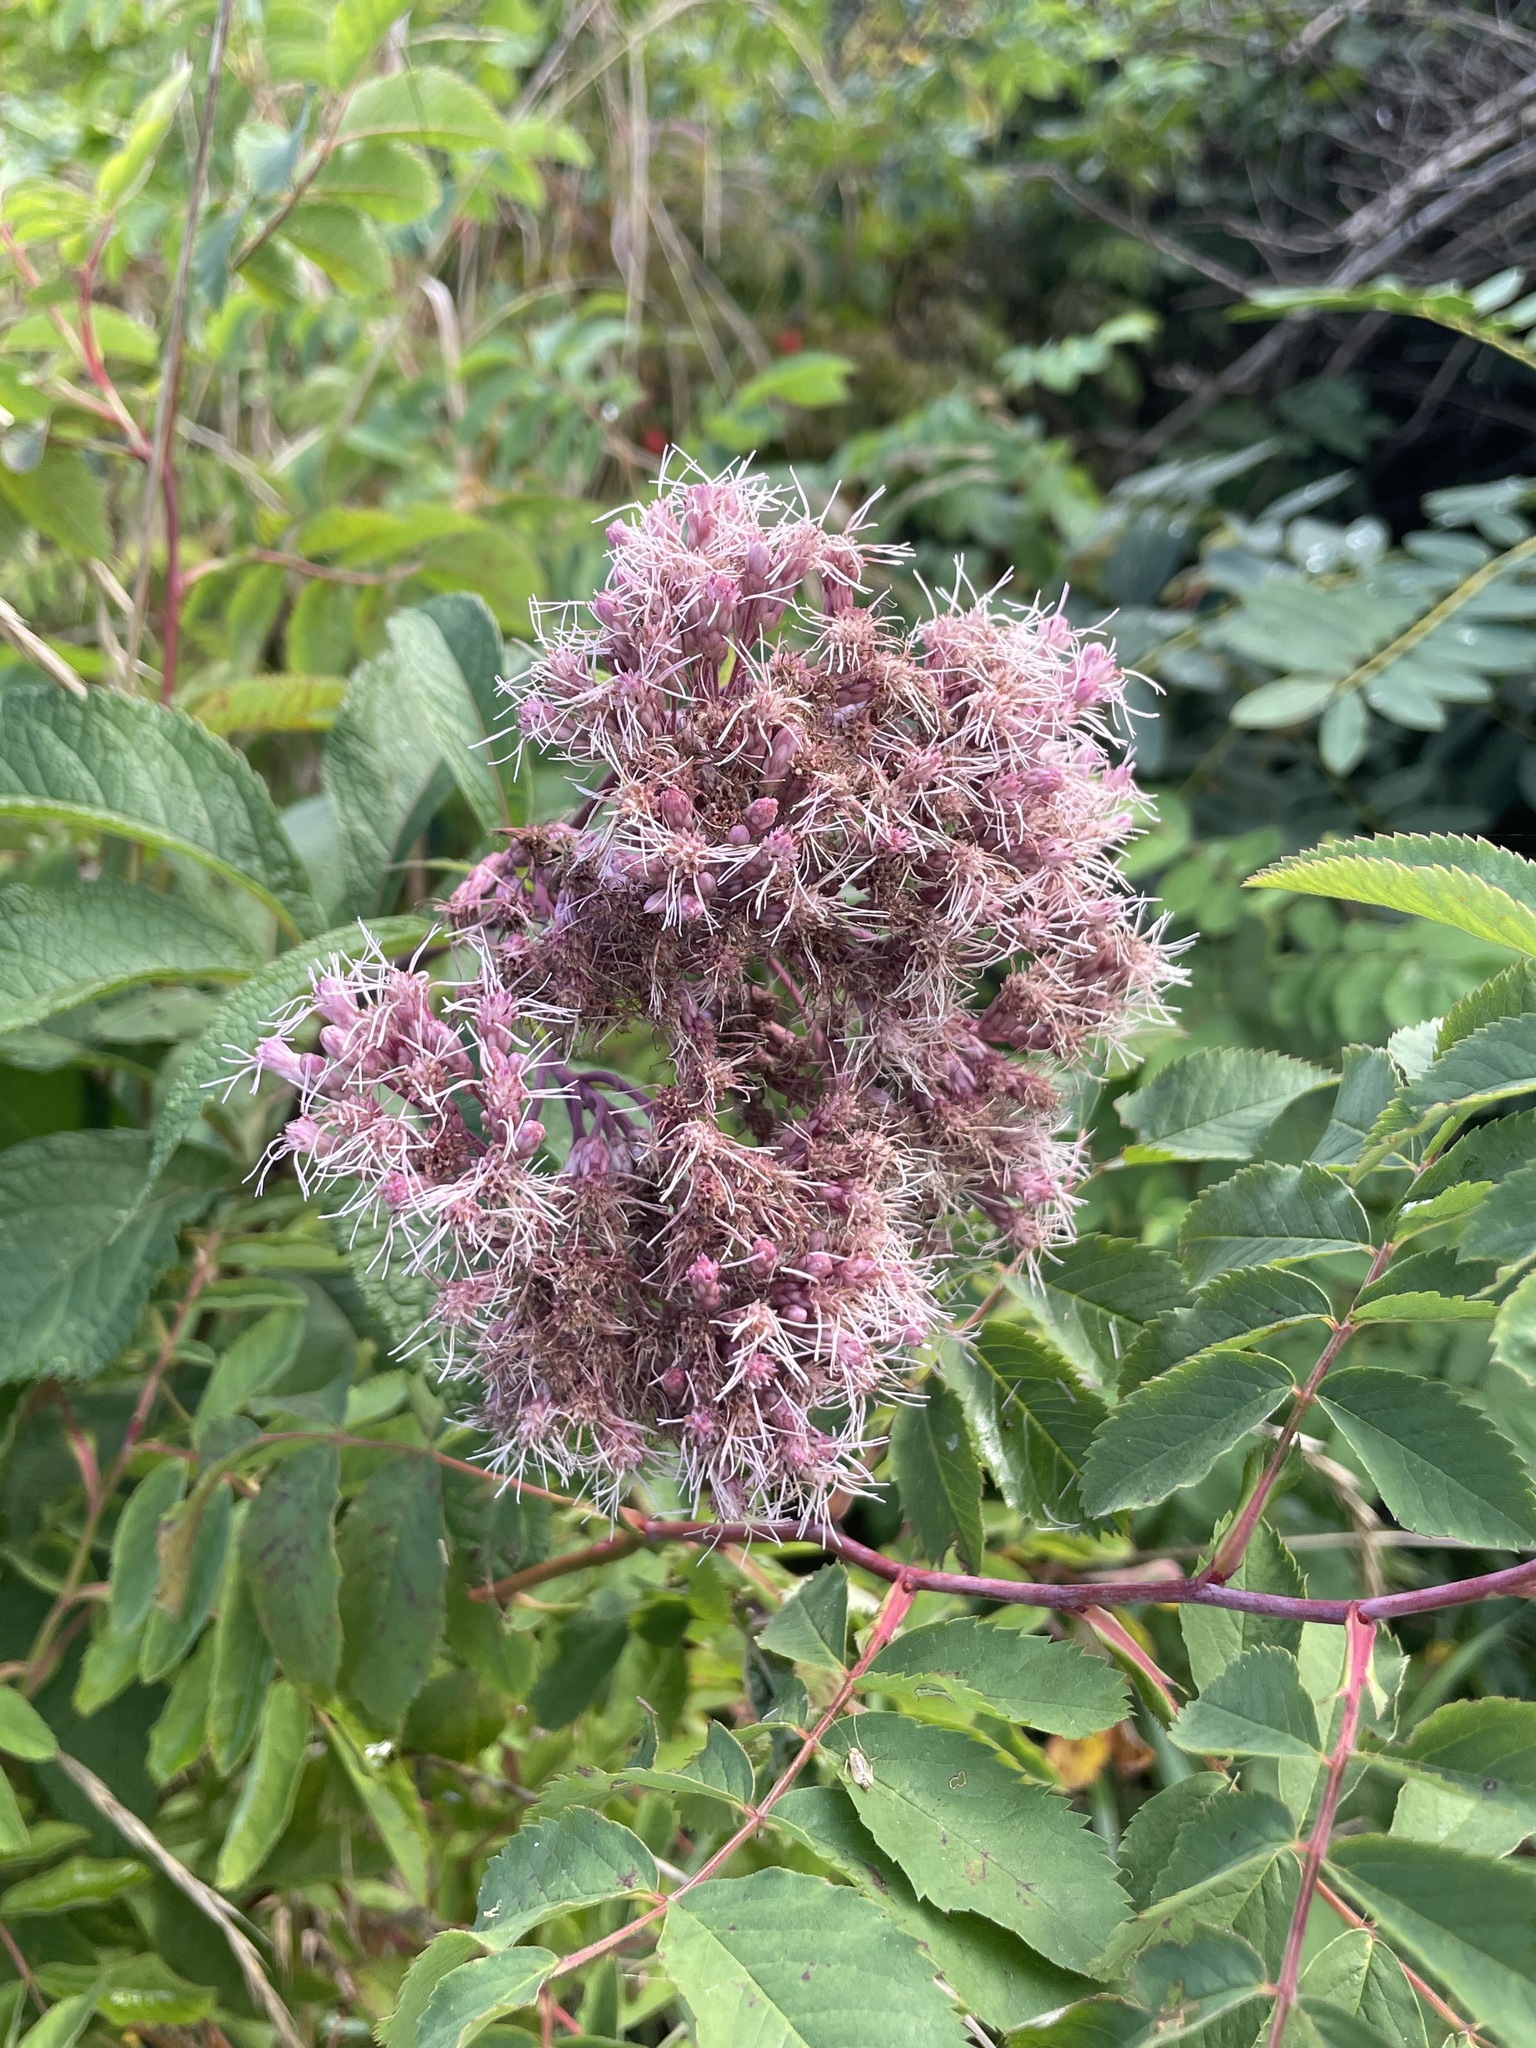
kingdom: Plantae
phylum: Tracheophyta
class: Magnoliopsida
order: Asterales
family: Asteraceae
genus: Eutrochium
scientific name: Eutrochium maculatum
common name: Spotted joe pye weed
